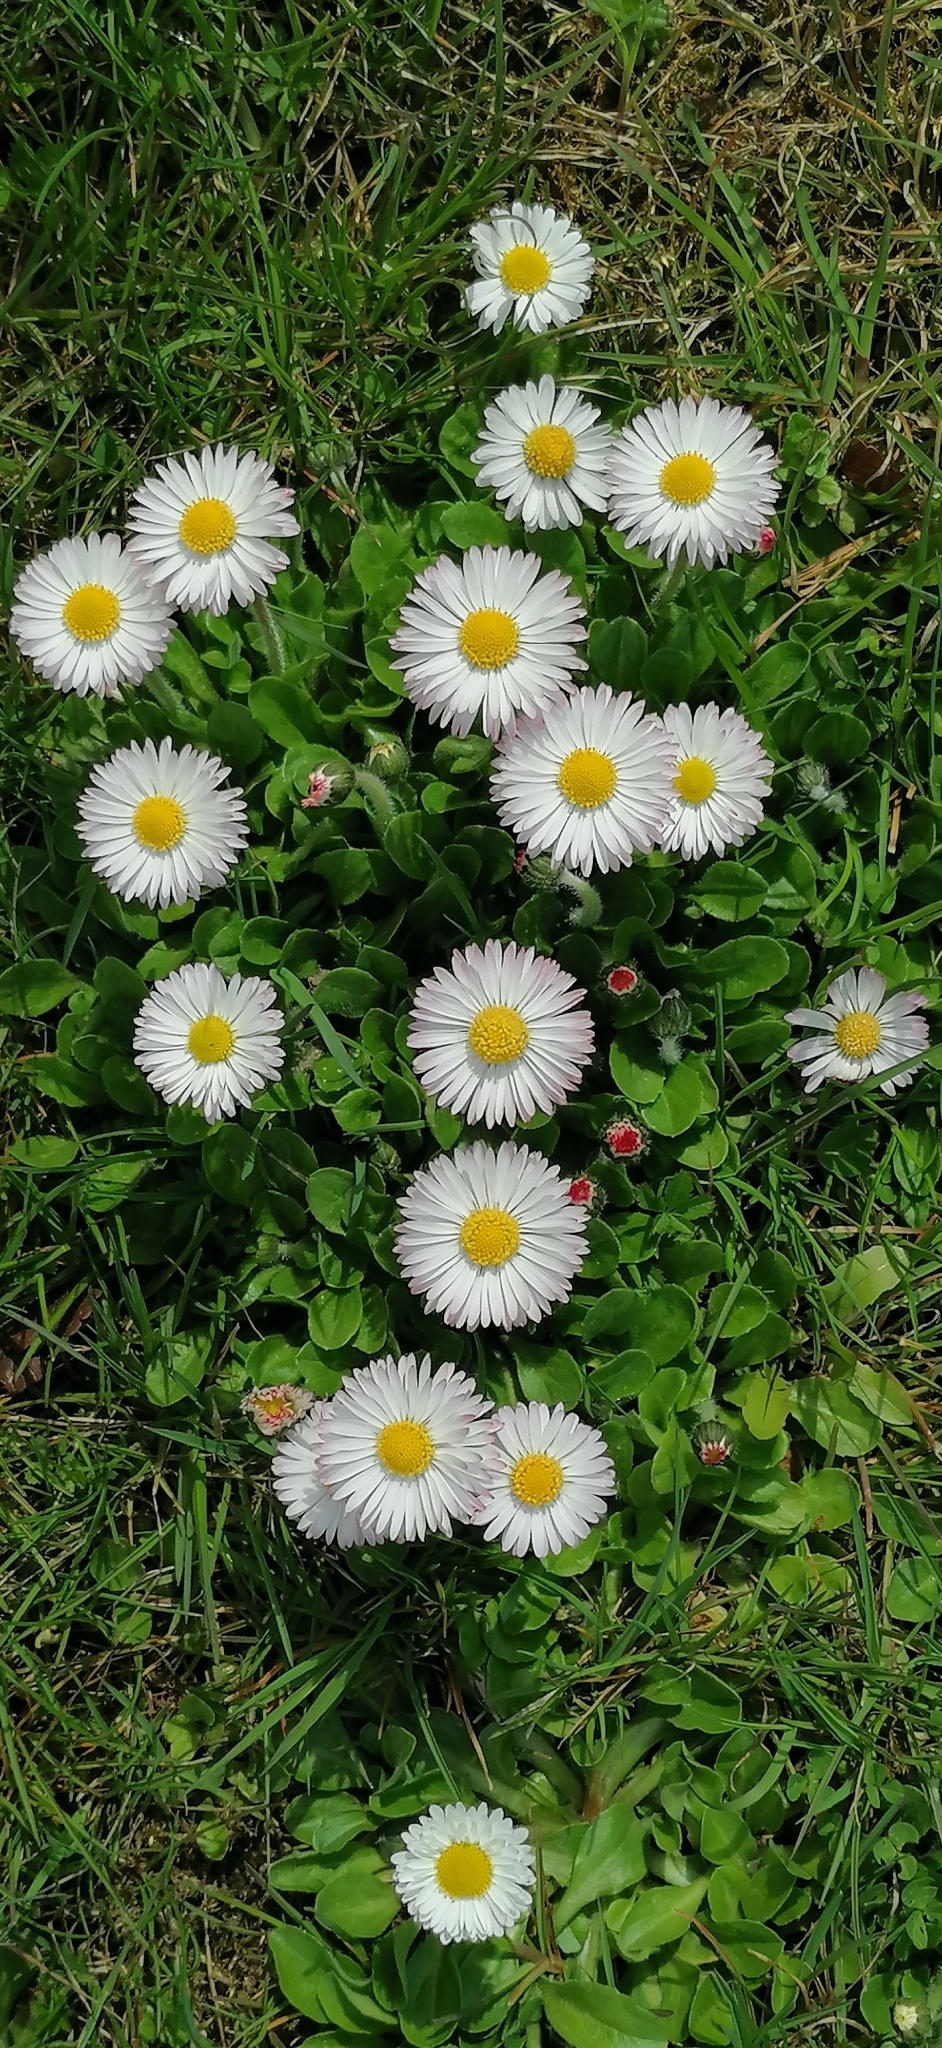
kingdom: Plantae
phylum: Tracheophyta
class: Magnoliopsida
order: Asterales
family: Asteraceae
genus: Bellis
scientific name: Bellis perennis
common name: Lawndaisy
